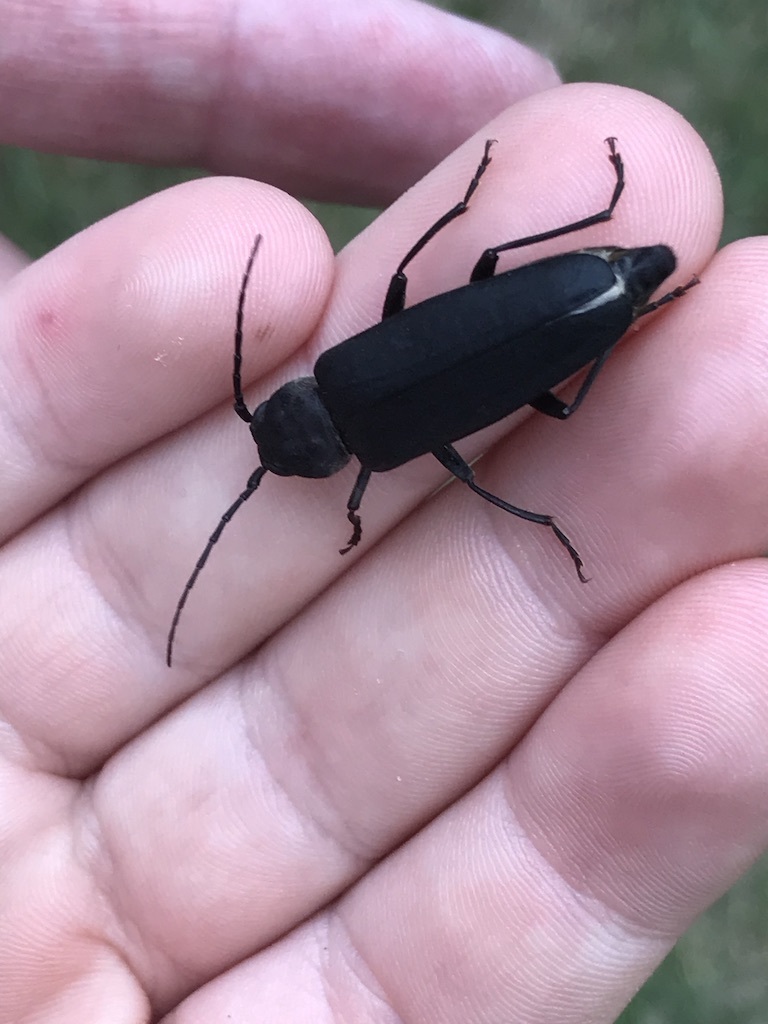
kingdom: Animalia
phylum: Arthropoda
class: Insecta
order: Coleoptera
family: Cerambycidae
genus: Arhopalus
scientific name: Arhopalus ferus
